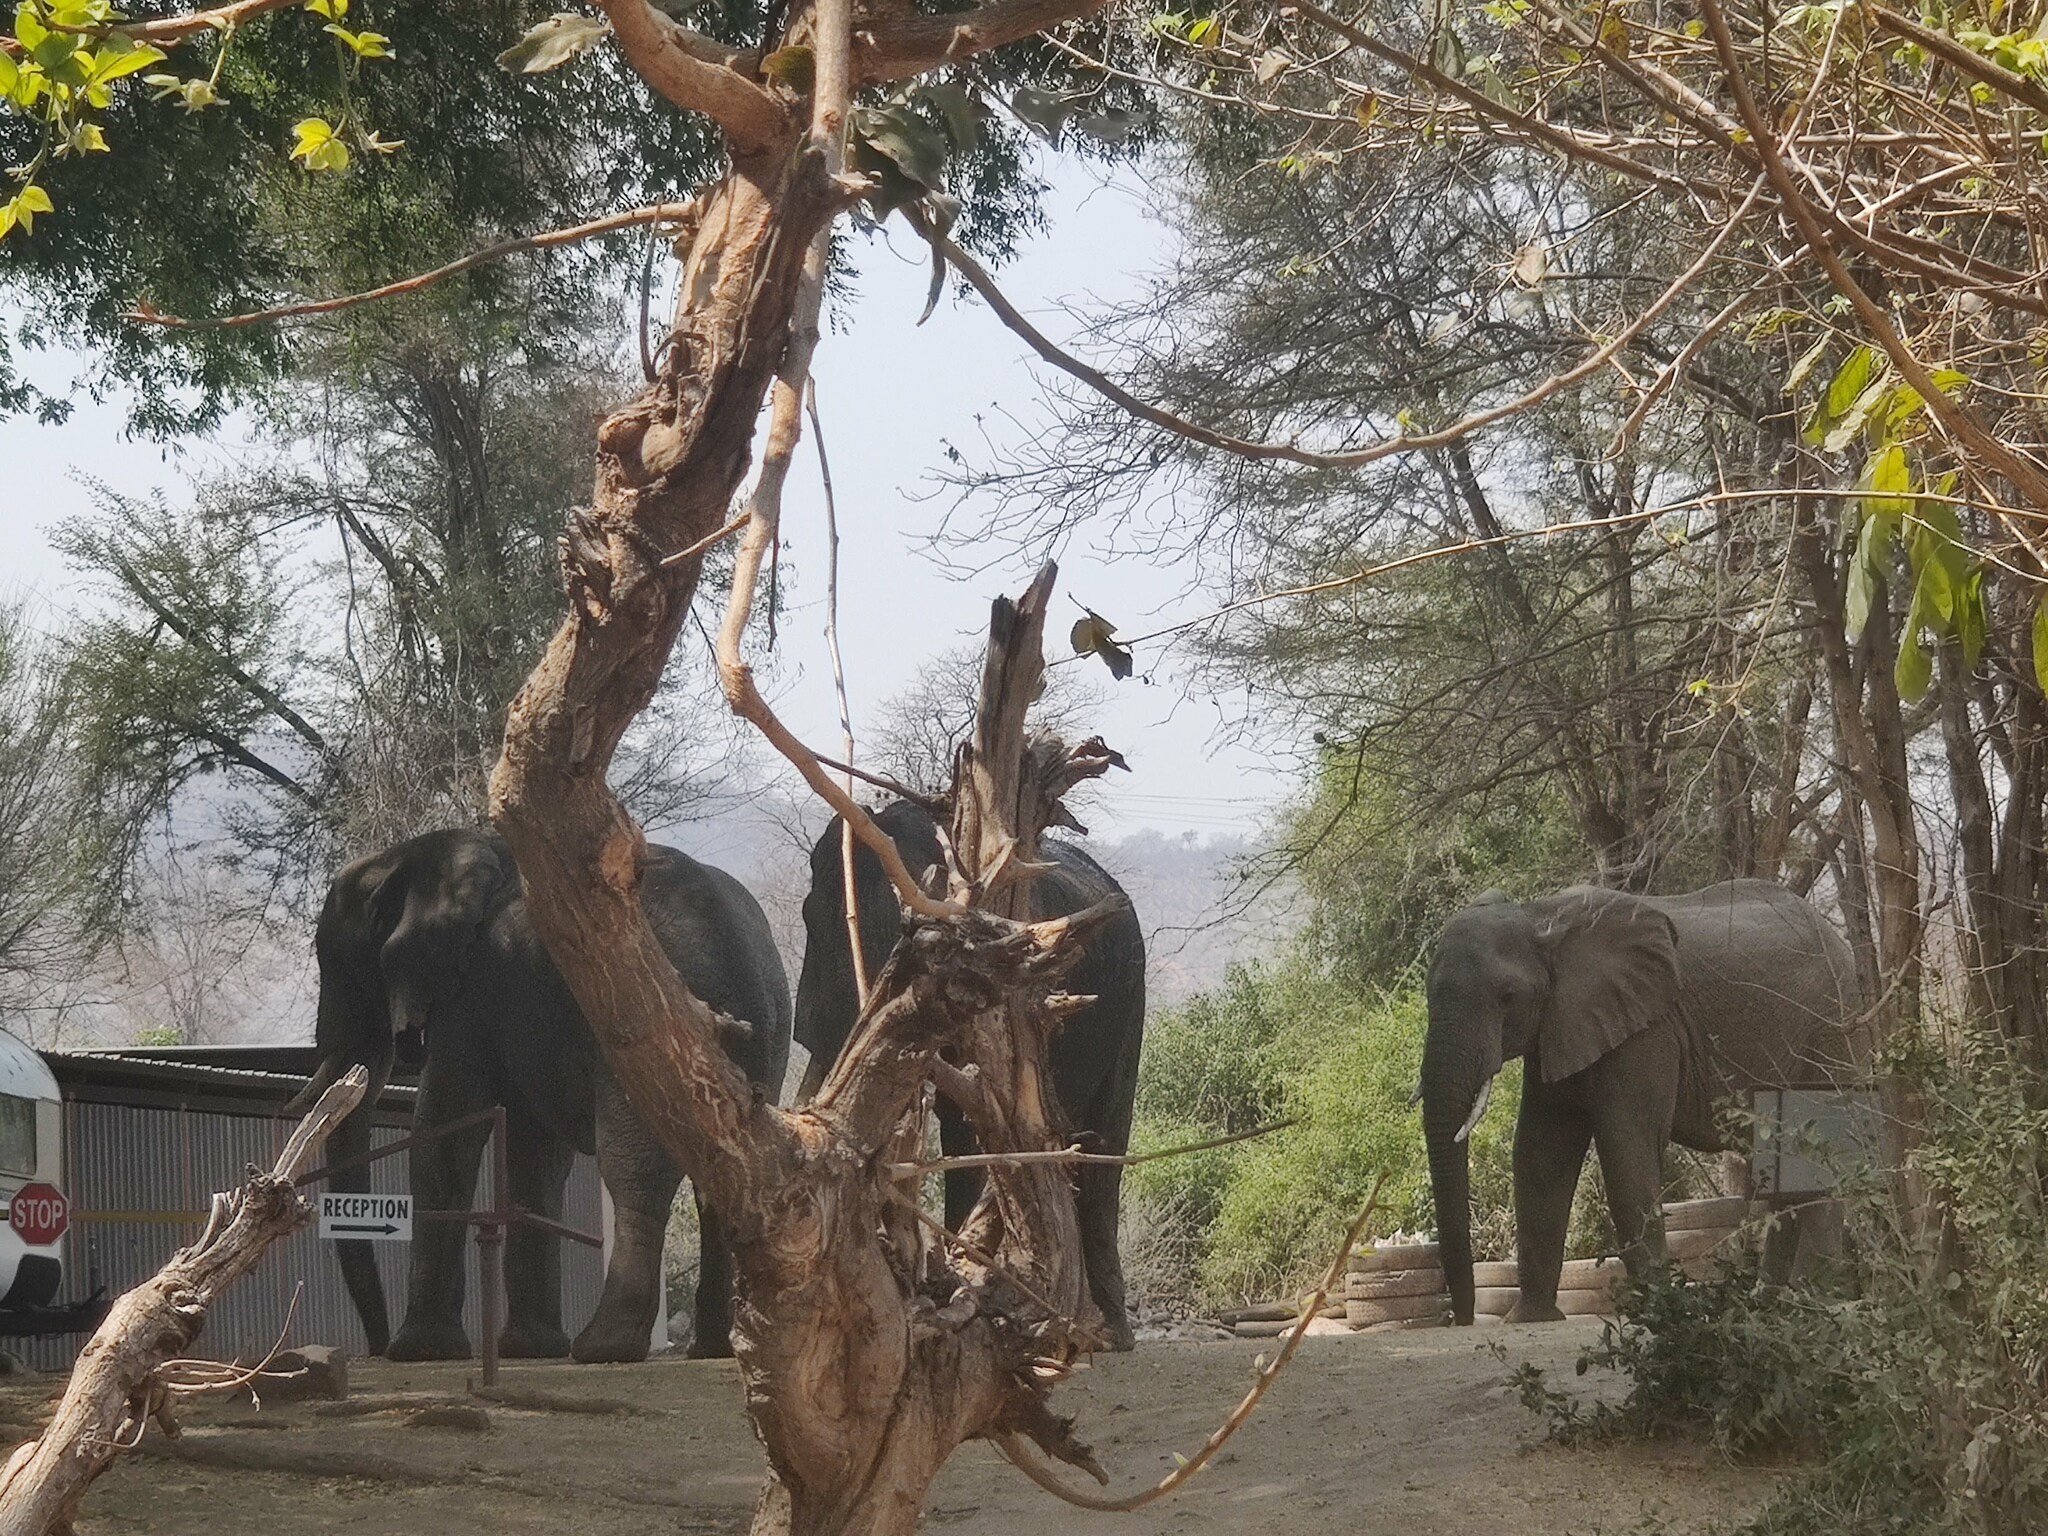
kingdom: Animalia
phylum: Chordata
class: Mammalia
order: Proboscidea
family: Elephantidae
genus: Loxodonta
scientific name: Loxodonta africana
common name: African elephant
